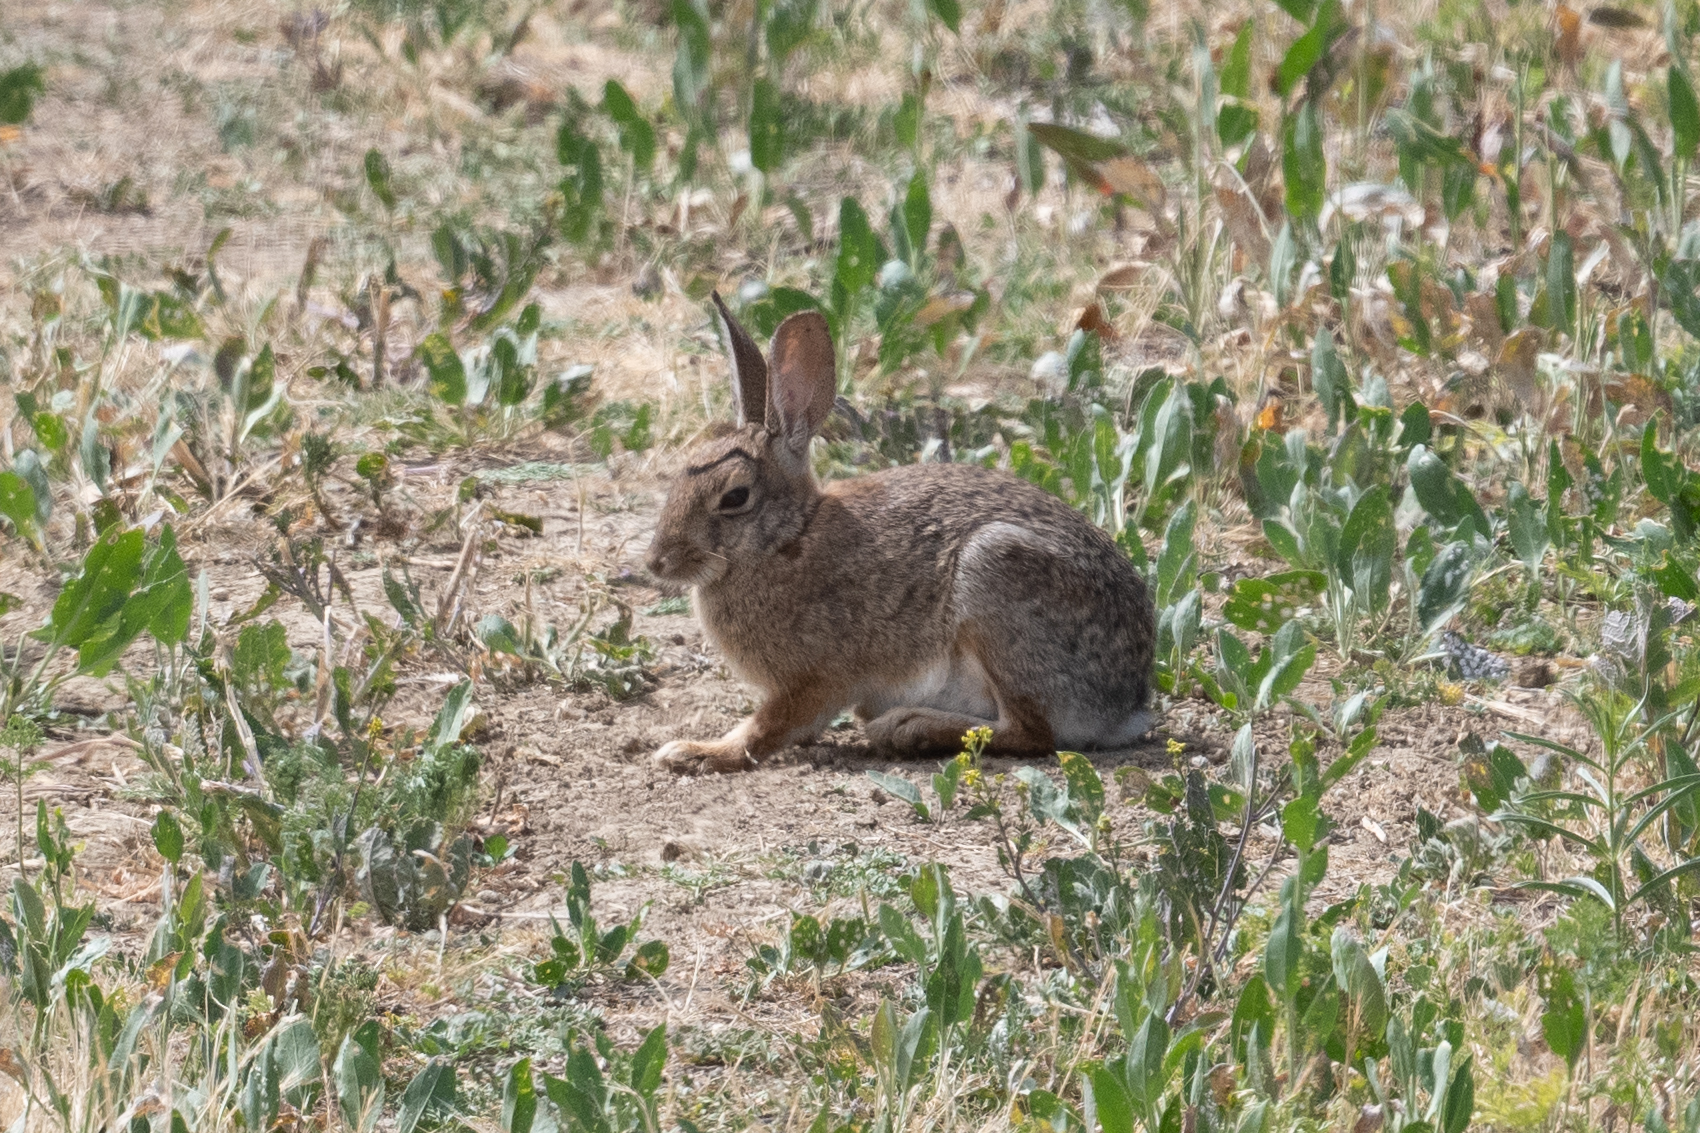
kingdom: Animalia
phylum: Chordata
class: Mammalia
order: Lagomorpha
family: Leporidae
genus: Sylvilagus
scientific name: Sylvilagus audubonii
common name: Desert cottontail
